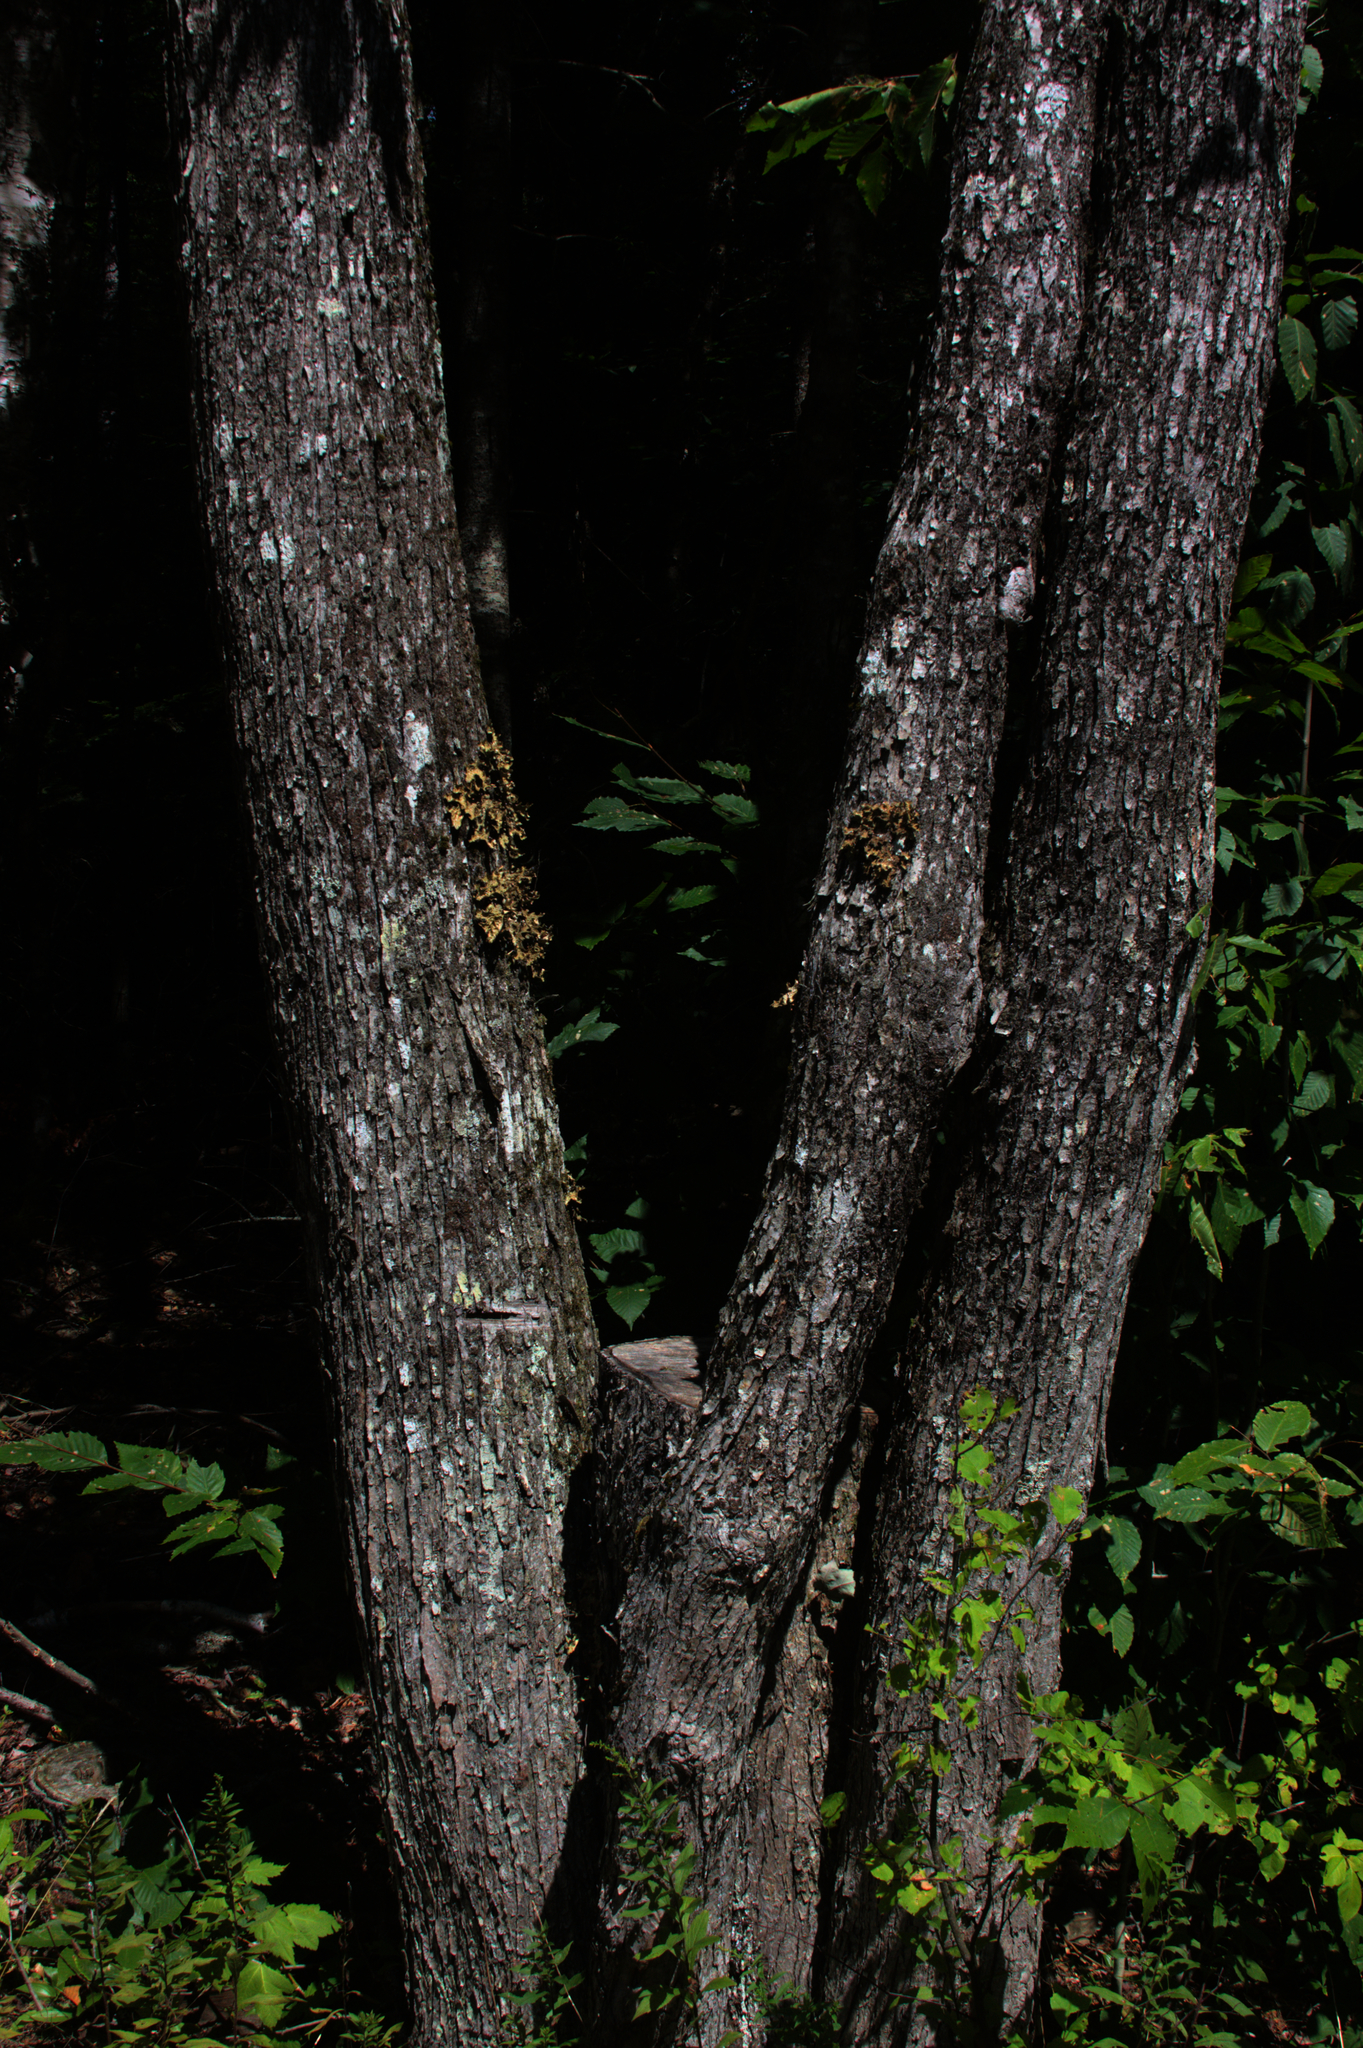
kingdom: Plantae
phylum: Tracheophyta
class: Magnoliopsida
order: Sapindales
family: Sapindaceae
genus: Acer
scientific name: Acer rubrum
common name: Red maple
